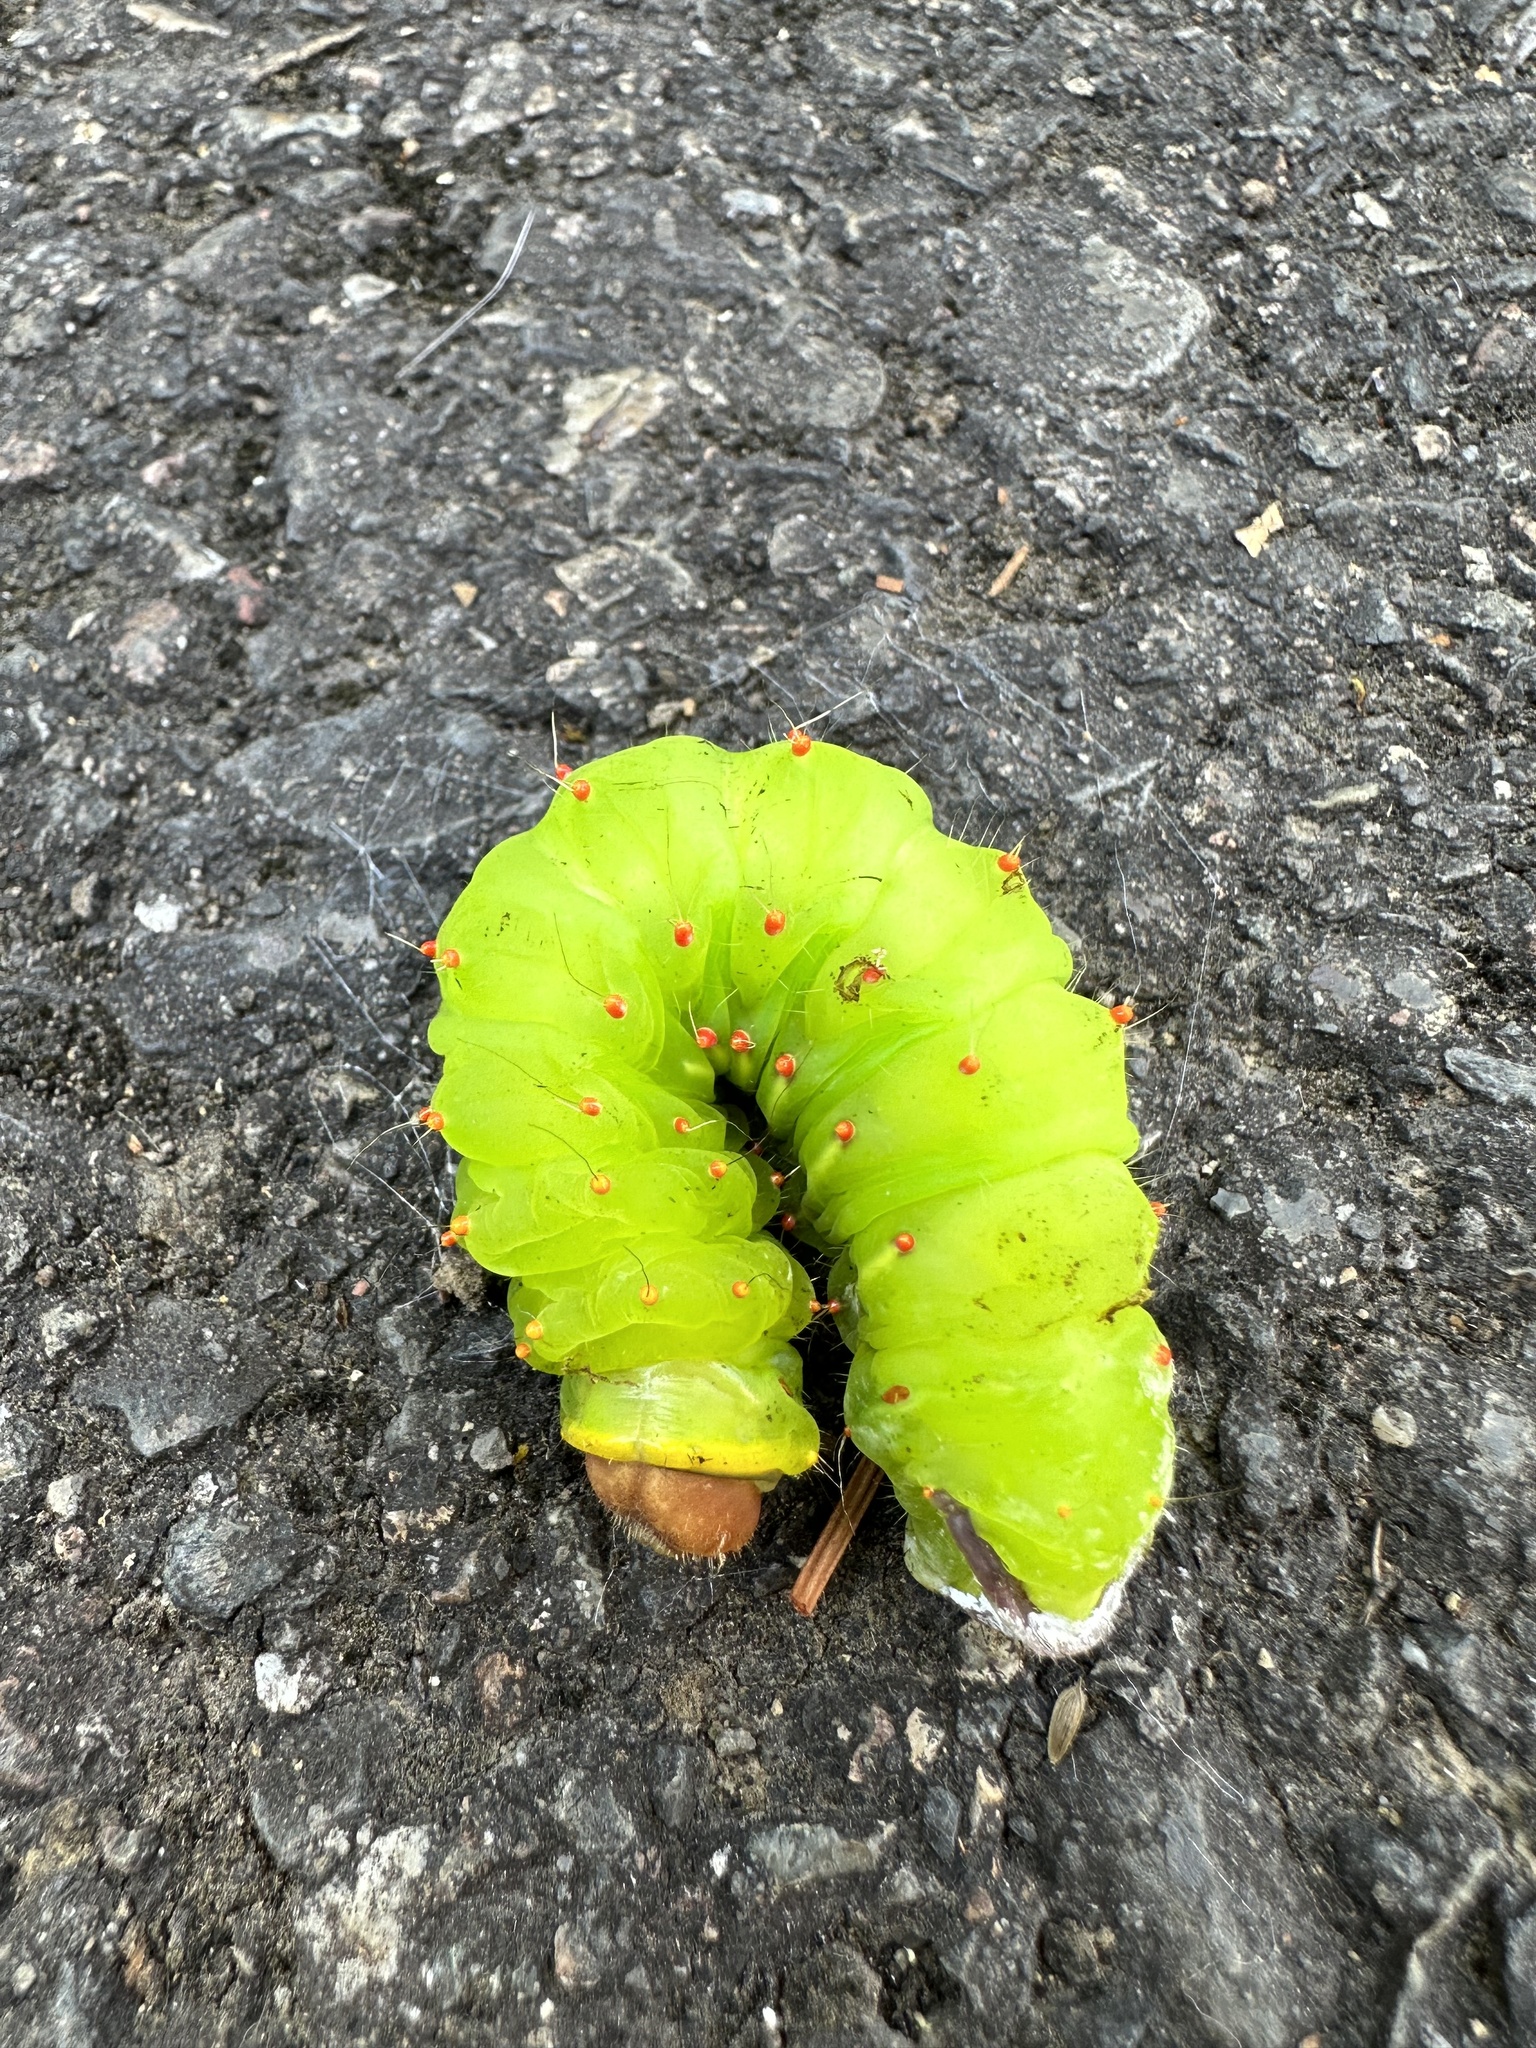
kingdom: Animalia
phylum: Arthropoda
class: Insecta
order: Lepidoptera
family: Saturniidae
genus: Antheraea
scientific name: Antheraea polyphemus
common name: Polyphemus moth
